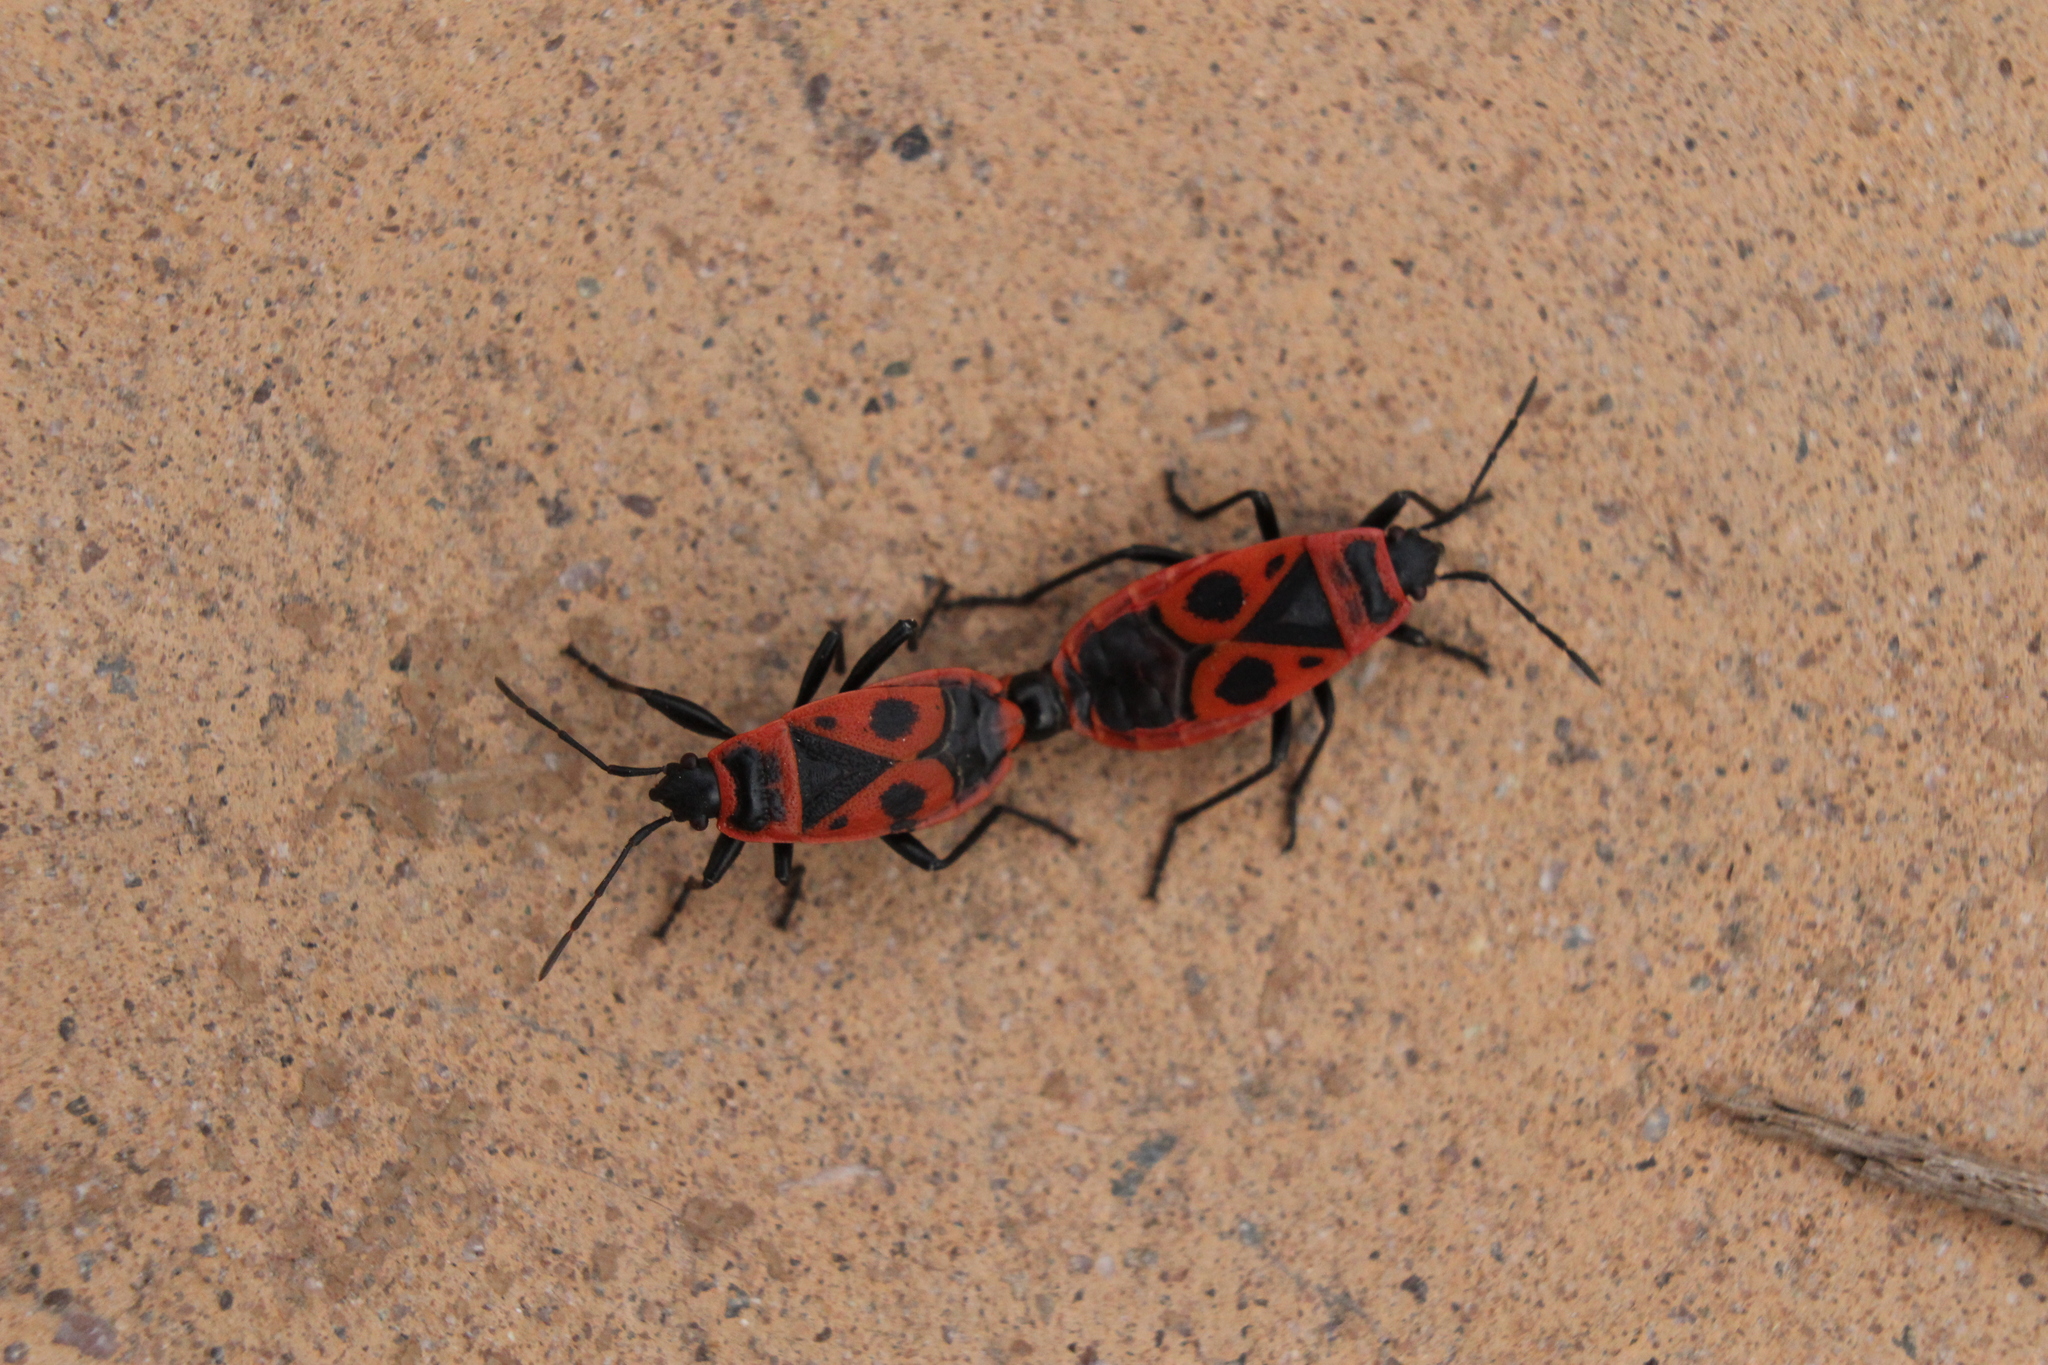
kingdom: Animalia
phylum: Arthropoda
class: Insecta
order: Hemiptera
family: Pyrrhocoridae
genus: Pyrrhocoris
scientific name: Pyrrhocoris apterus
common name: Firebug
